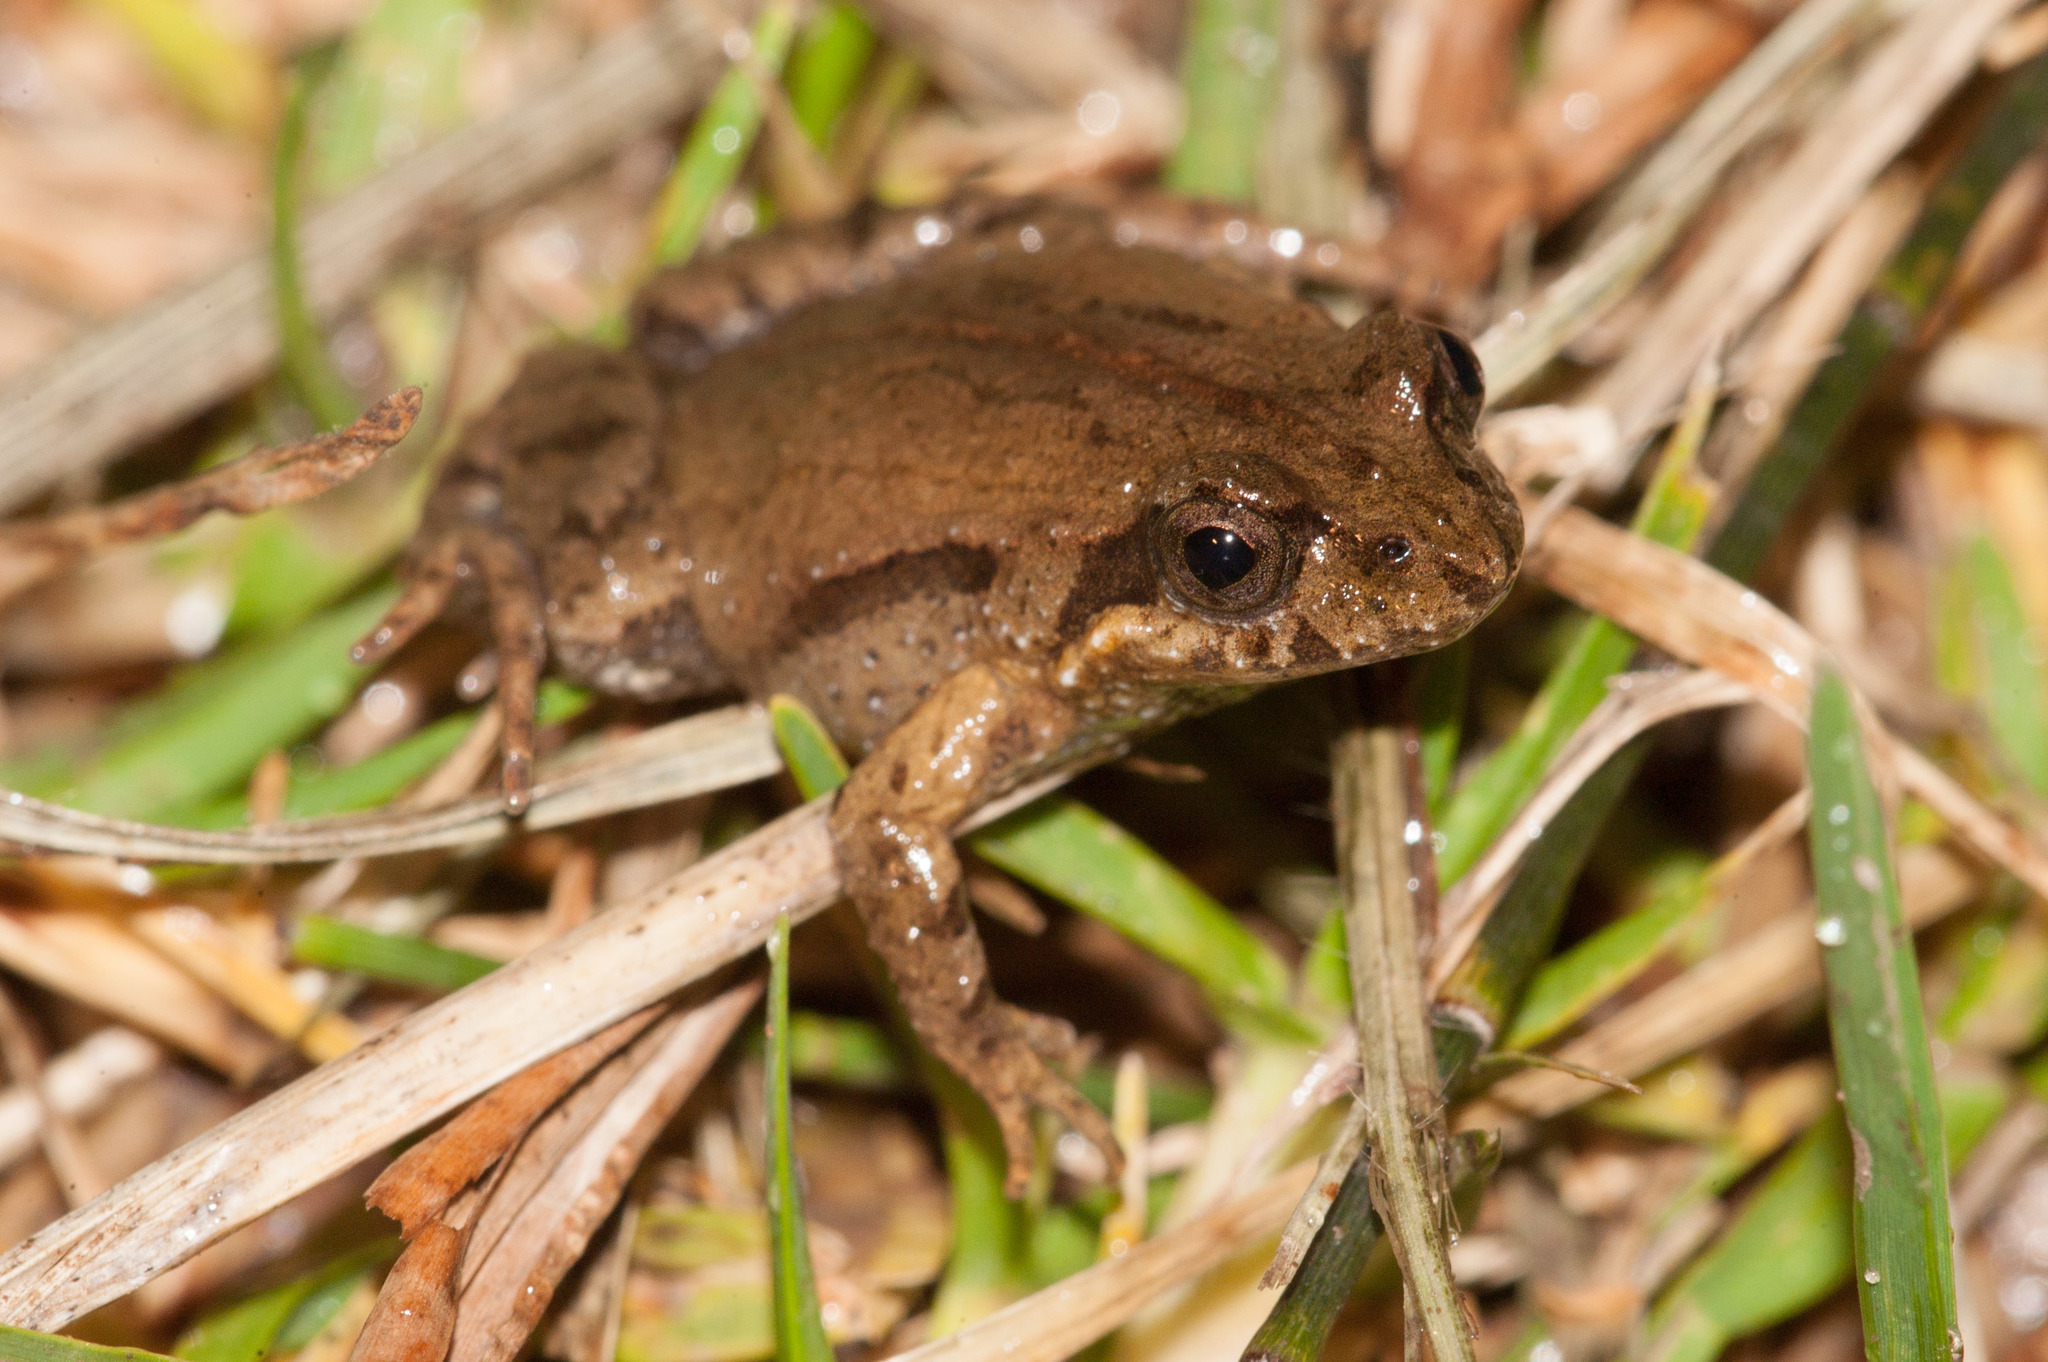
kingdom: Animalia
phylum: Chordata
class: Amphibia
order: Anura
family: Myobatrachidae
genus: Crinia
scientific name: Crinia signifera
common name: Brown froglet
